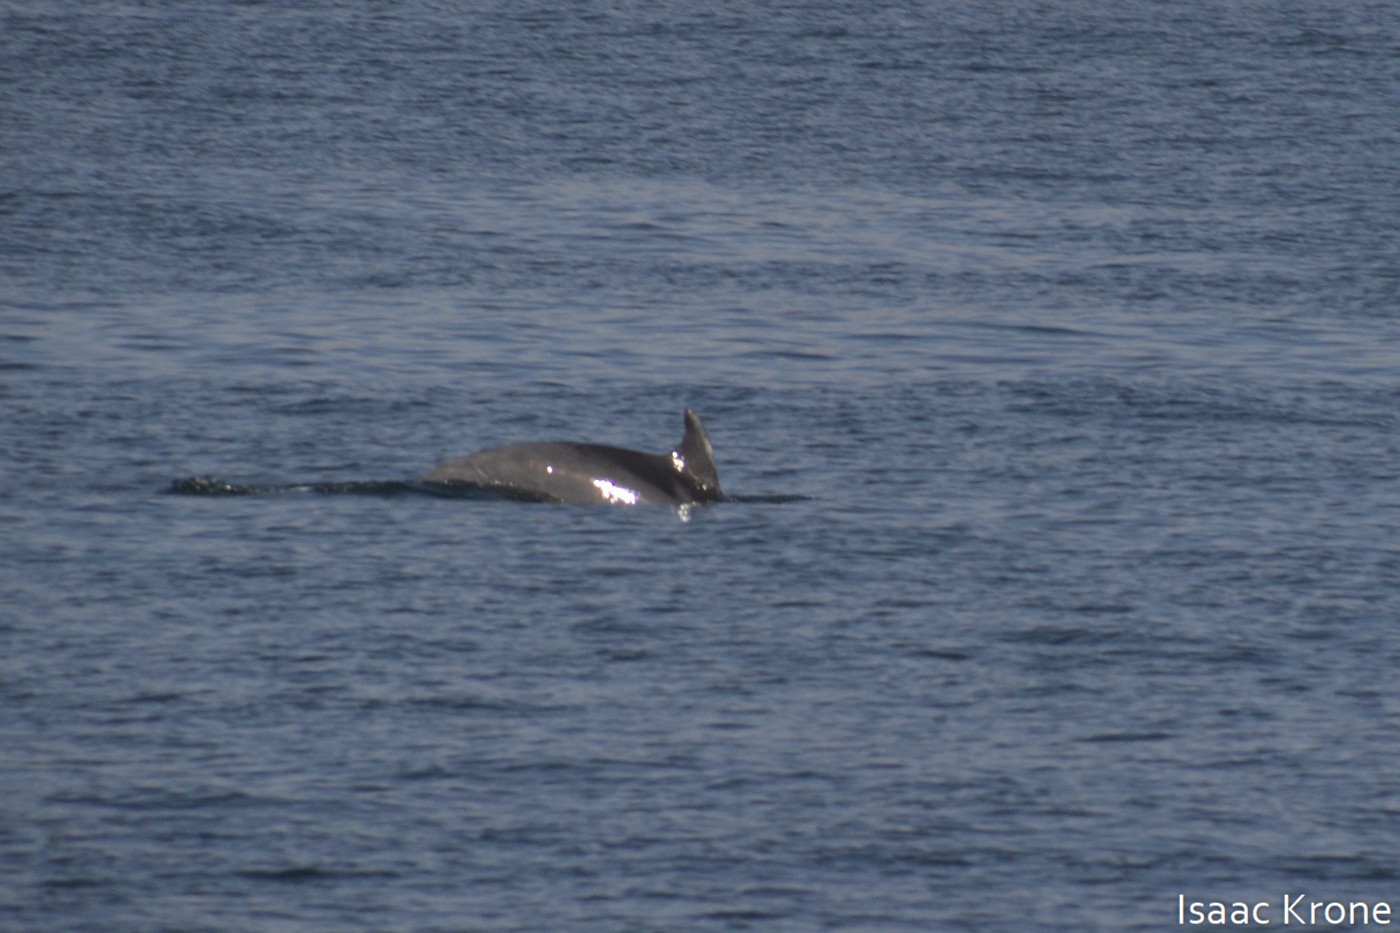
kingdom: Animalia
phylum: Chordata
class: Mammalia
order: Cetacea
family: Delphinidae
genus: Tursiops
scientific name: Tursiops truncatus
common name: Bottlenose dolphin
